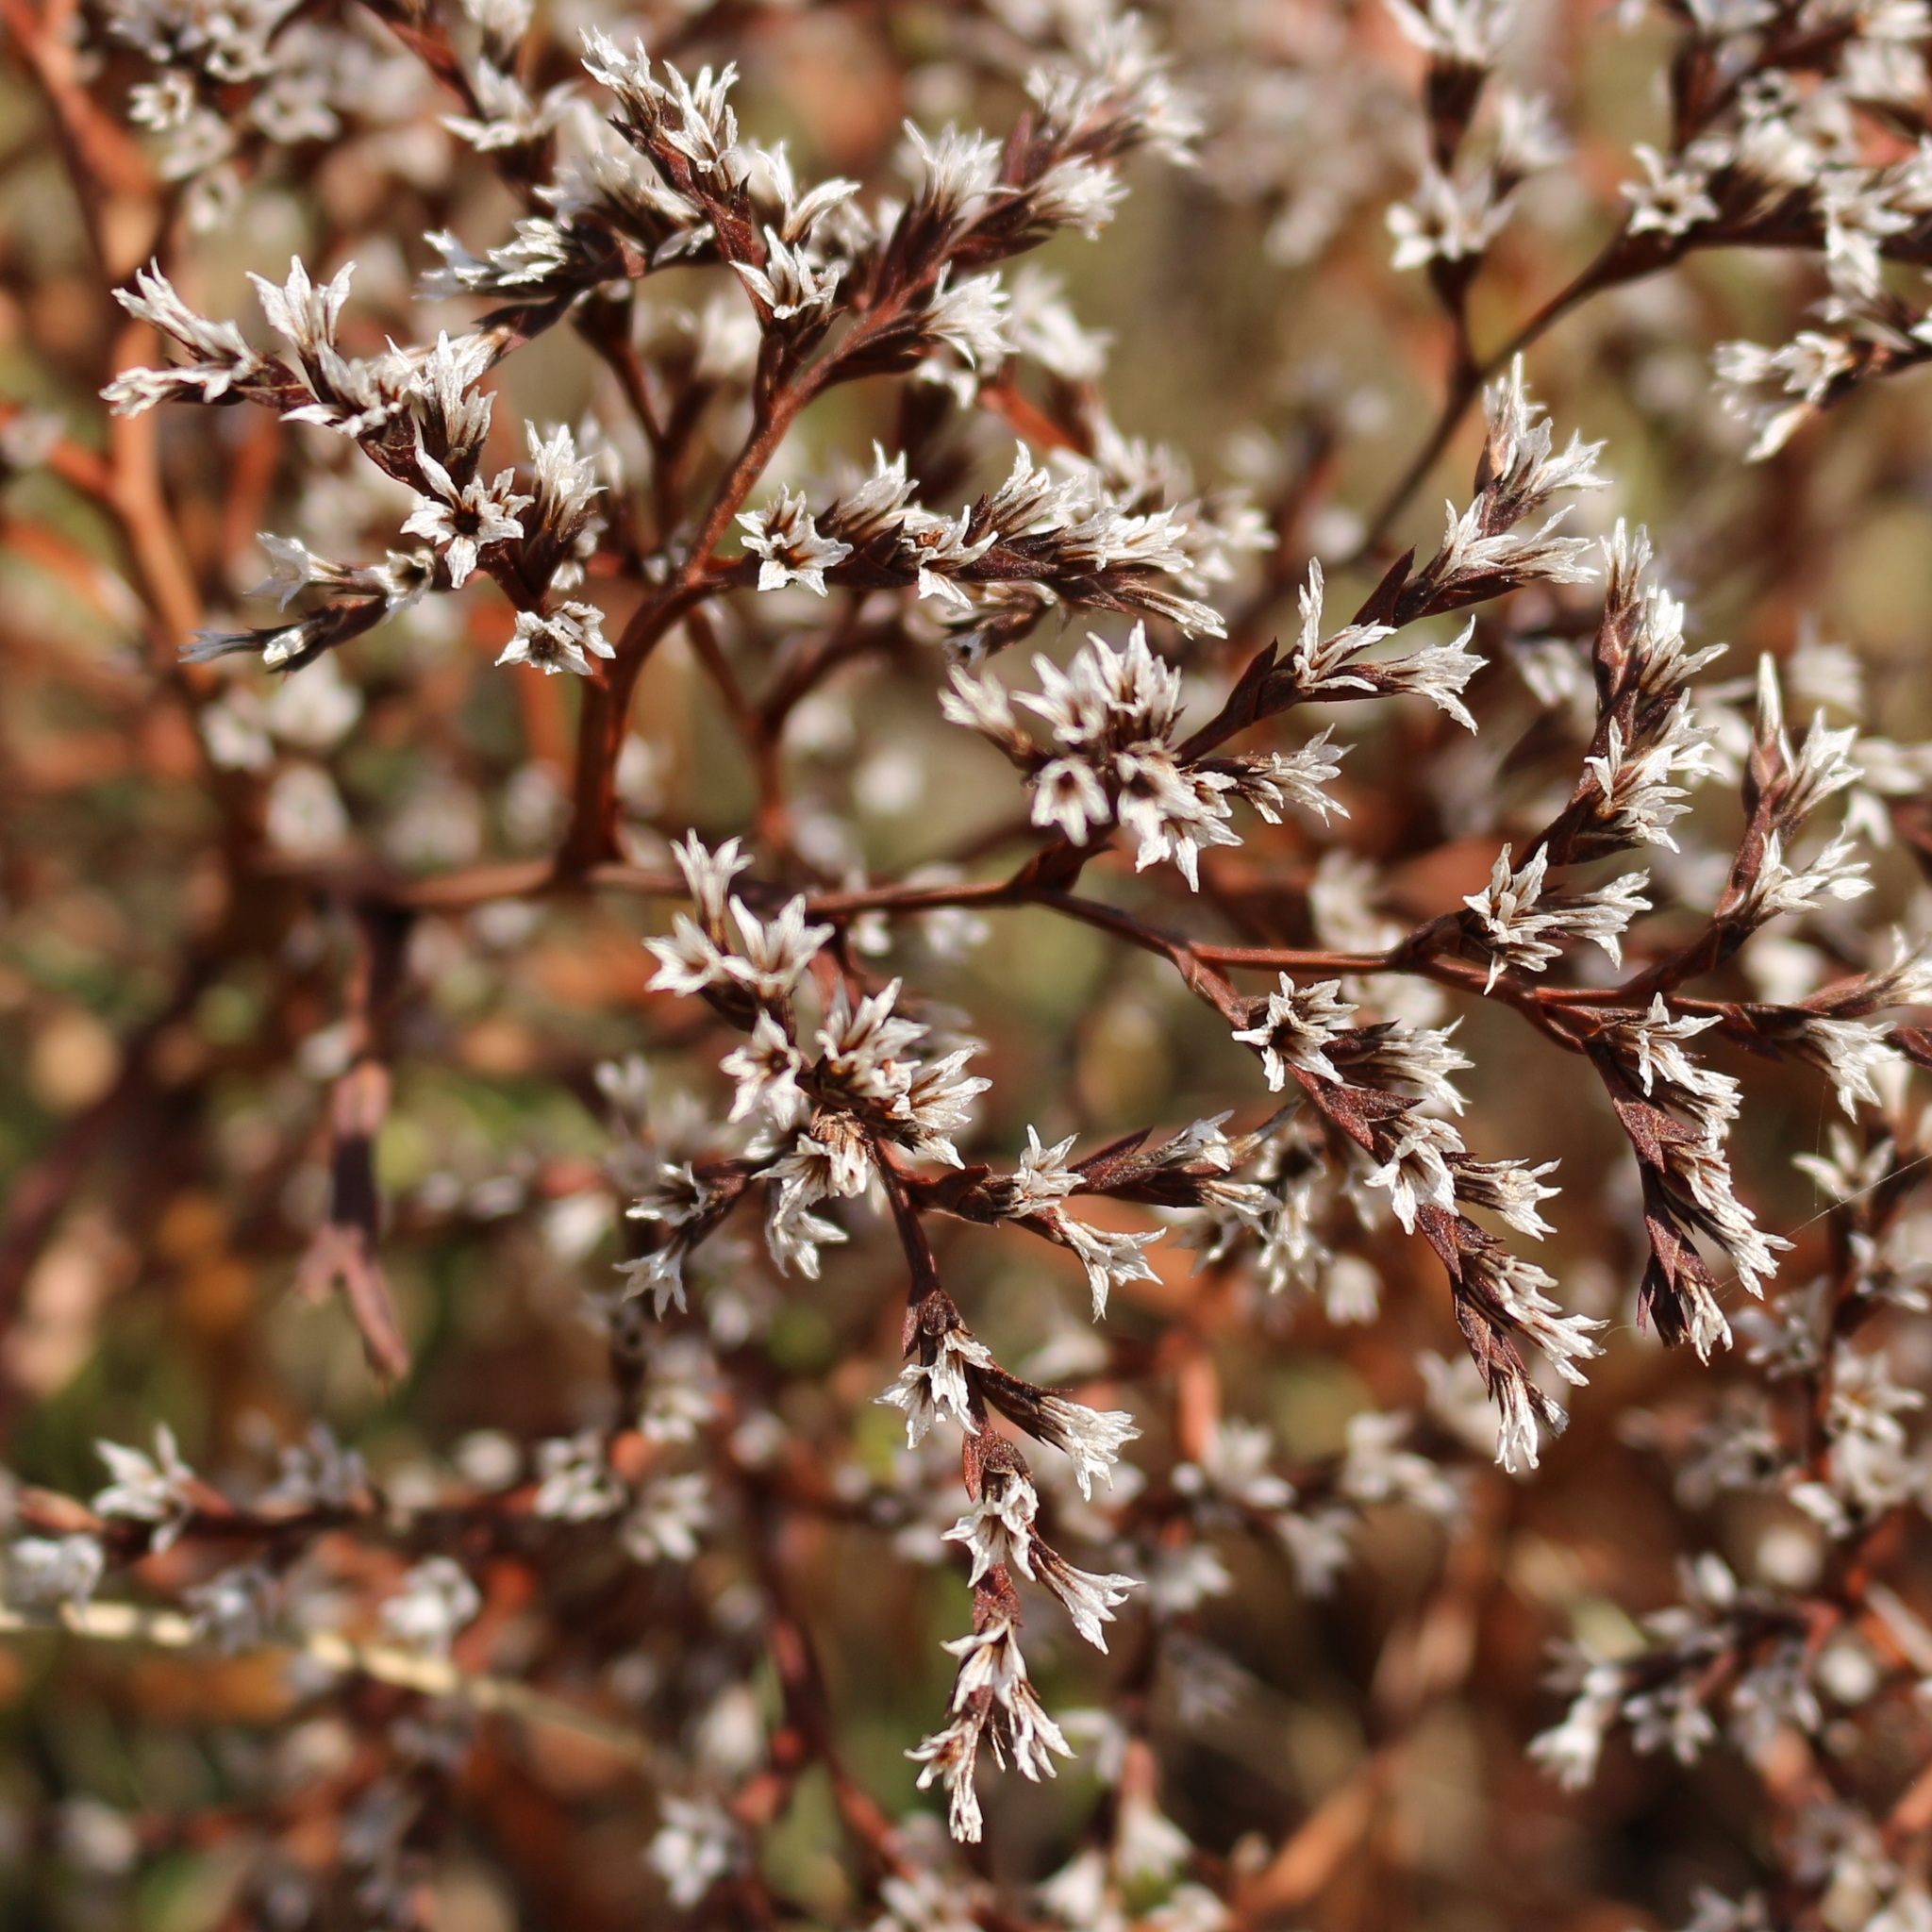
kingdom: Plantae
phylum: Tracheophyta
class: Magnoliopsida
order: Caryophyllales
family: Plumbaginaceae
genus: Goniolimon
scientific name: Goniolimon tataricum
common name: Statice
